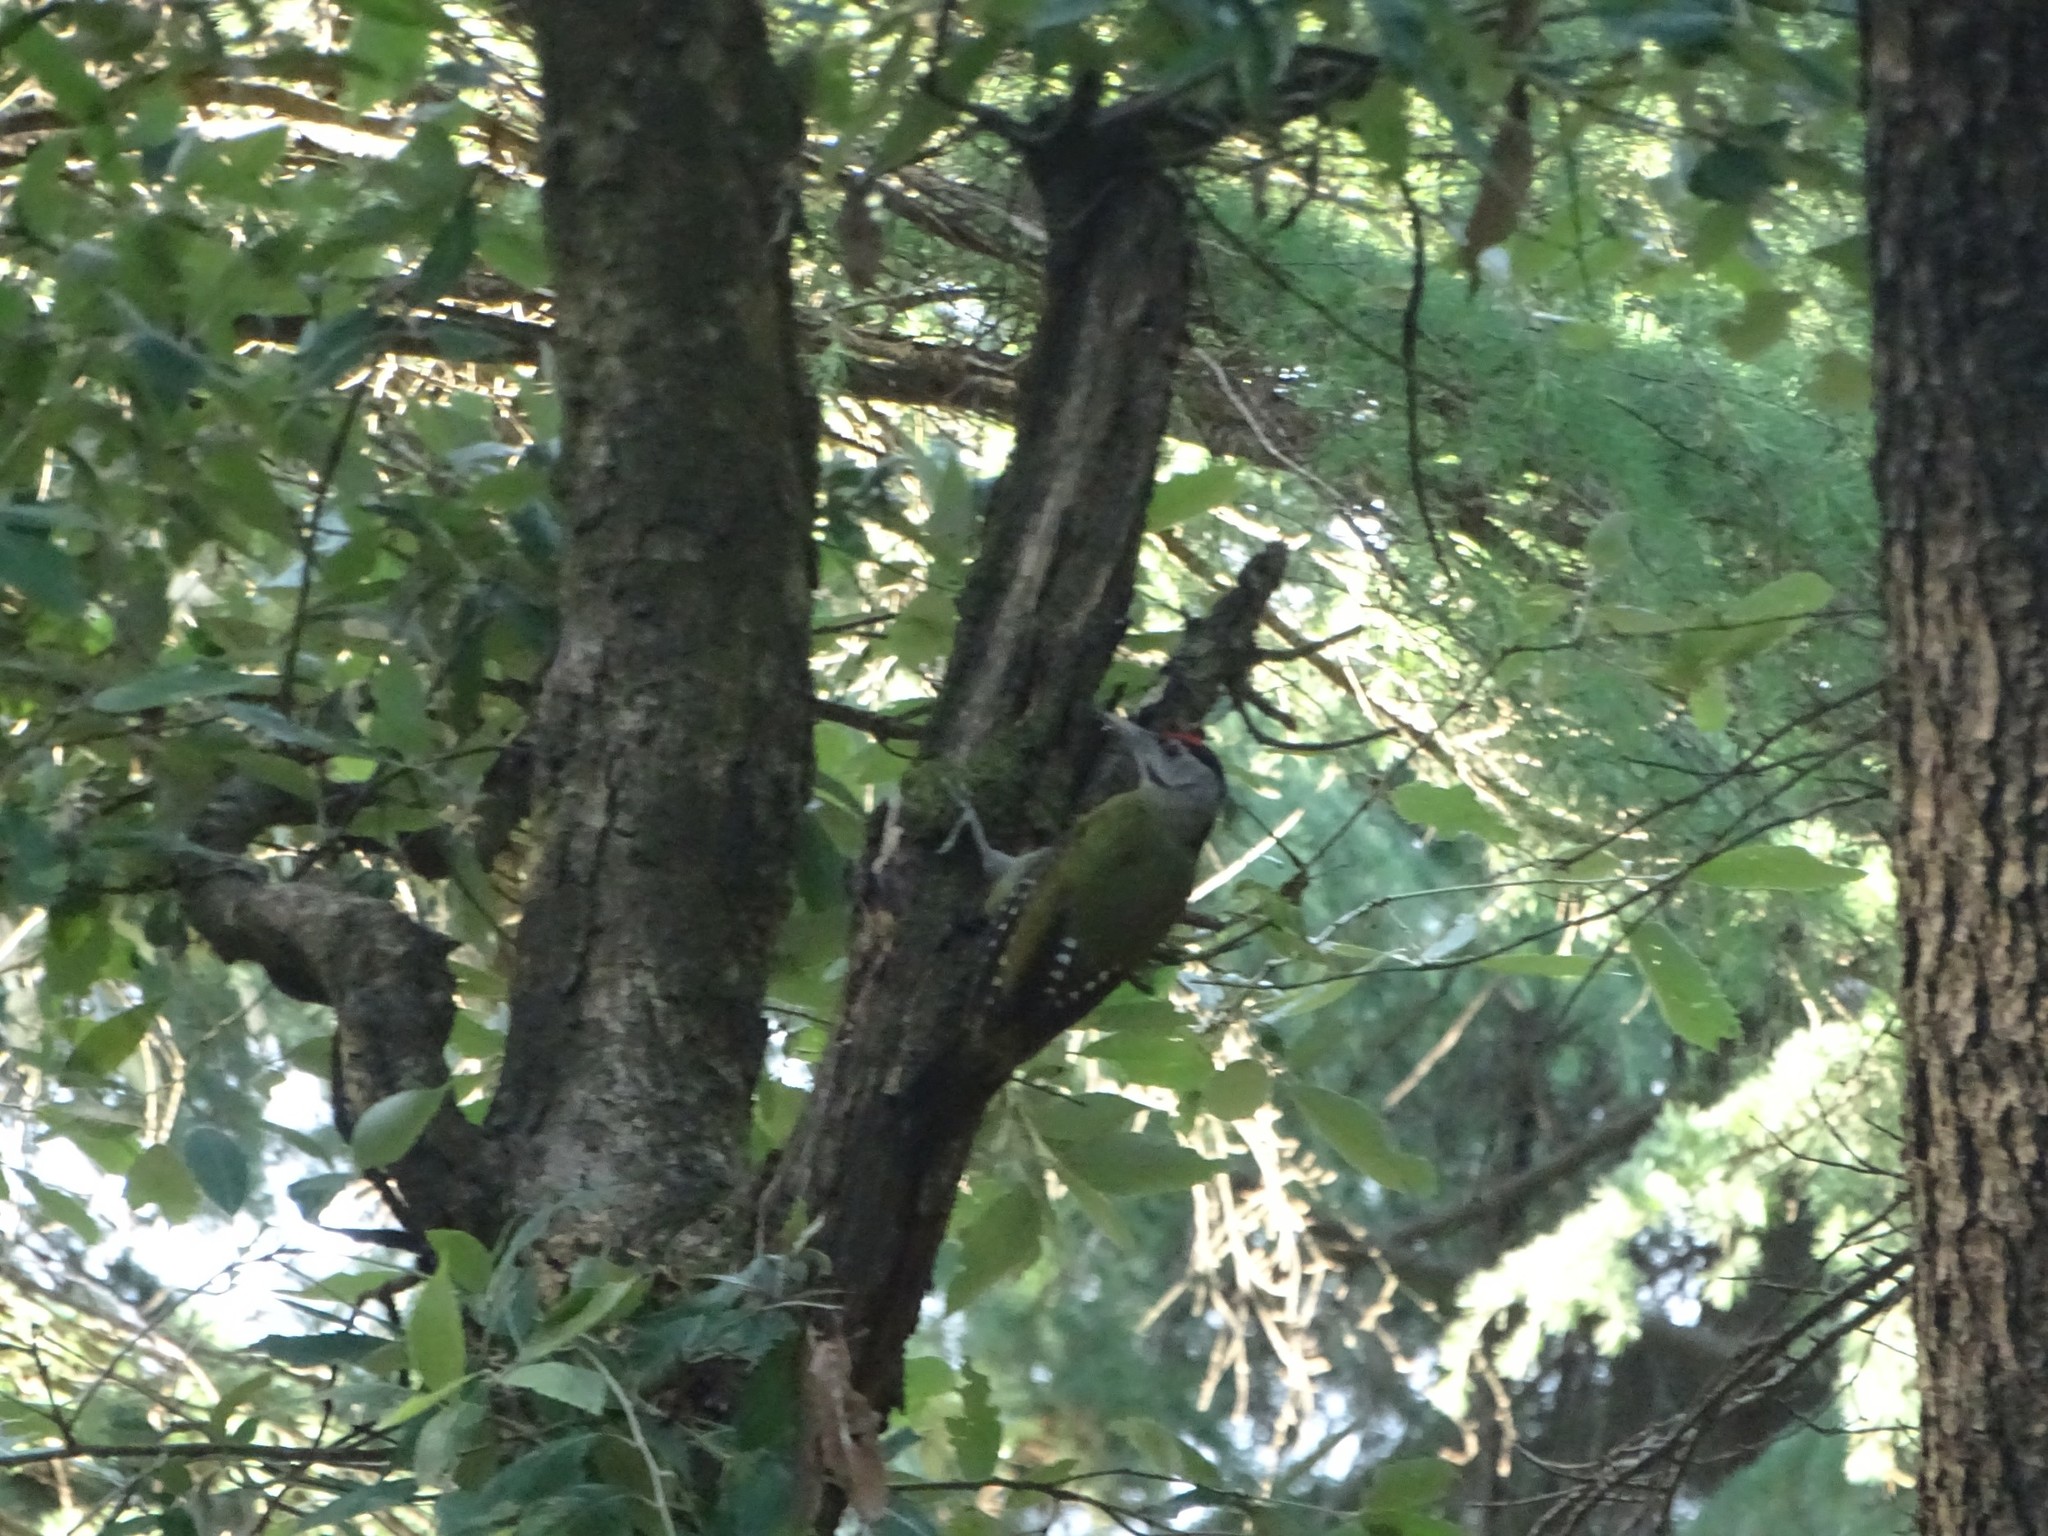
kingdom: Animalia
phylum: Chordata
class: Aves
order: Piciformes
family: Picidae
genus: Picus
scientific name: Picus canus
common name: Grey-headed woodpecker
